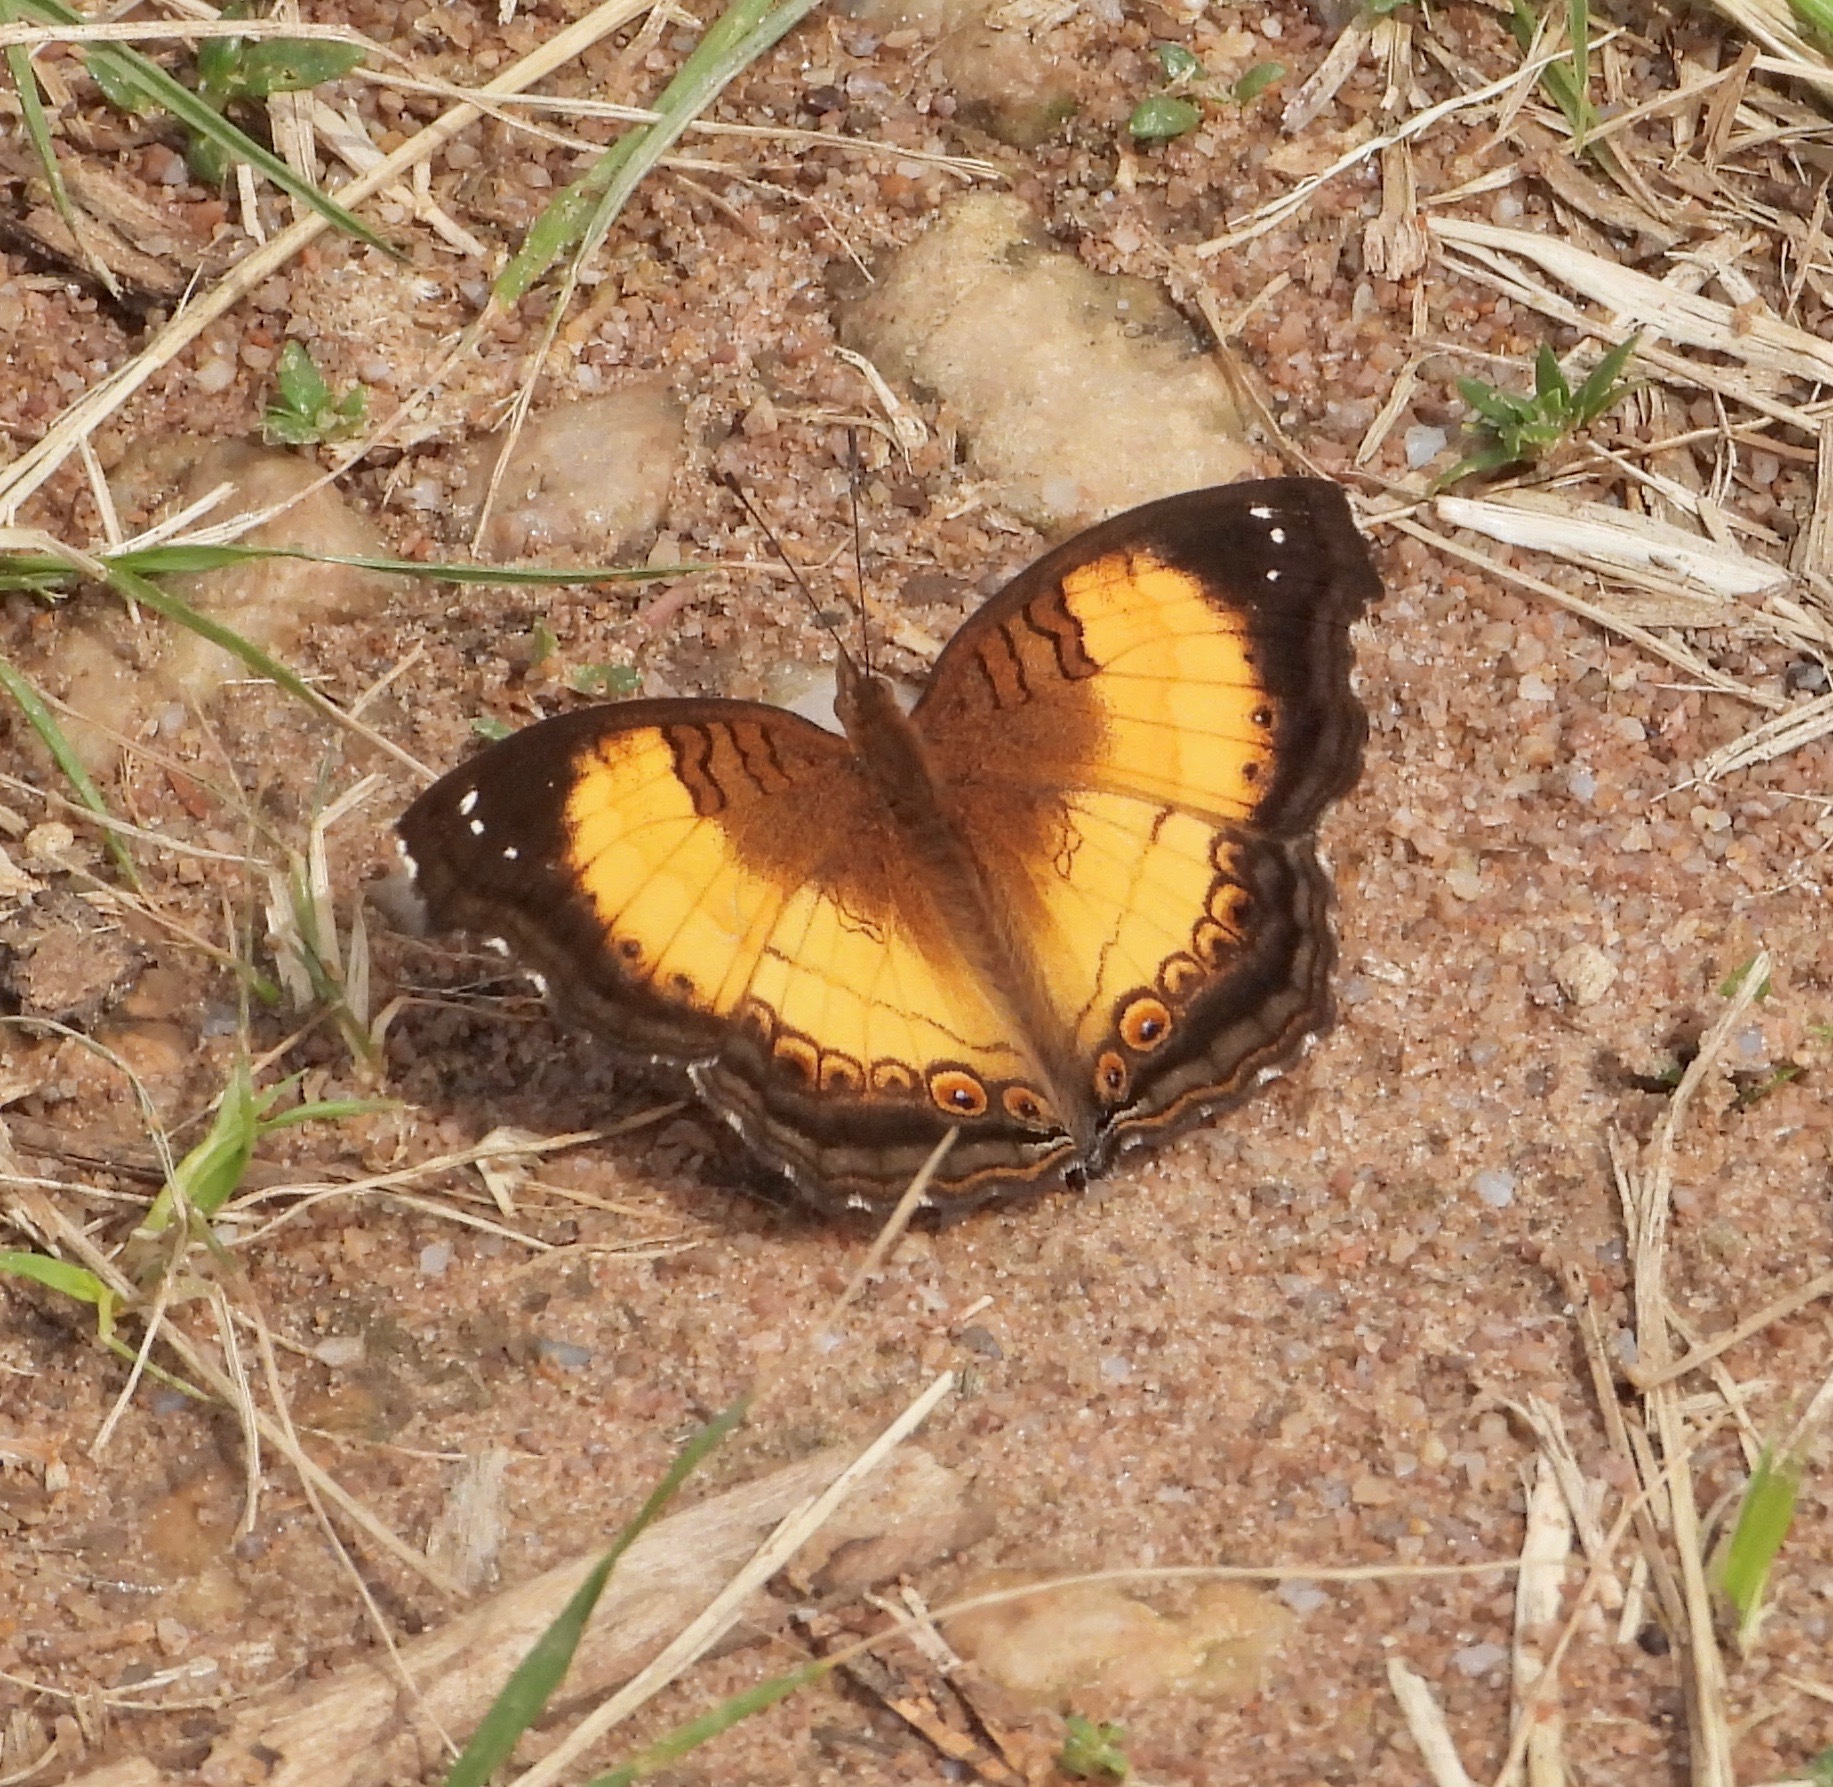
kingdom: Animalia
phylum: Arthropoda
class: Insecta
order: Lepidoptera
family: Nymphalidae
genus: Junonia
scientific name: Junonia terea
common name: Soldier pansy
